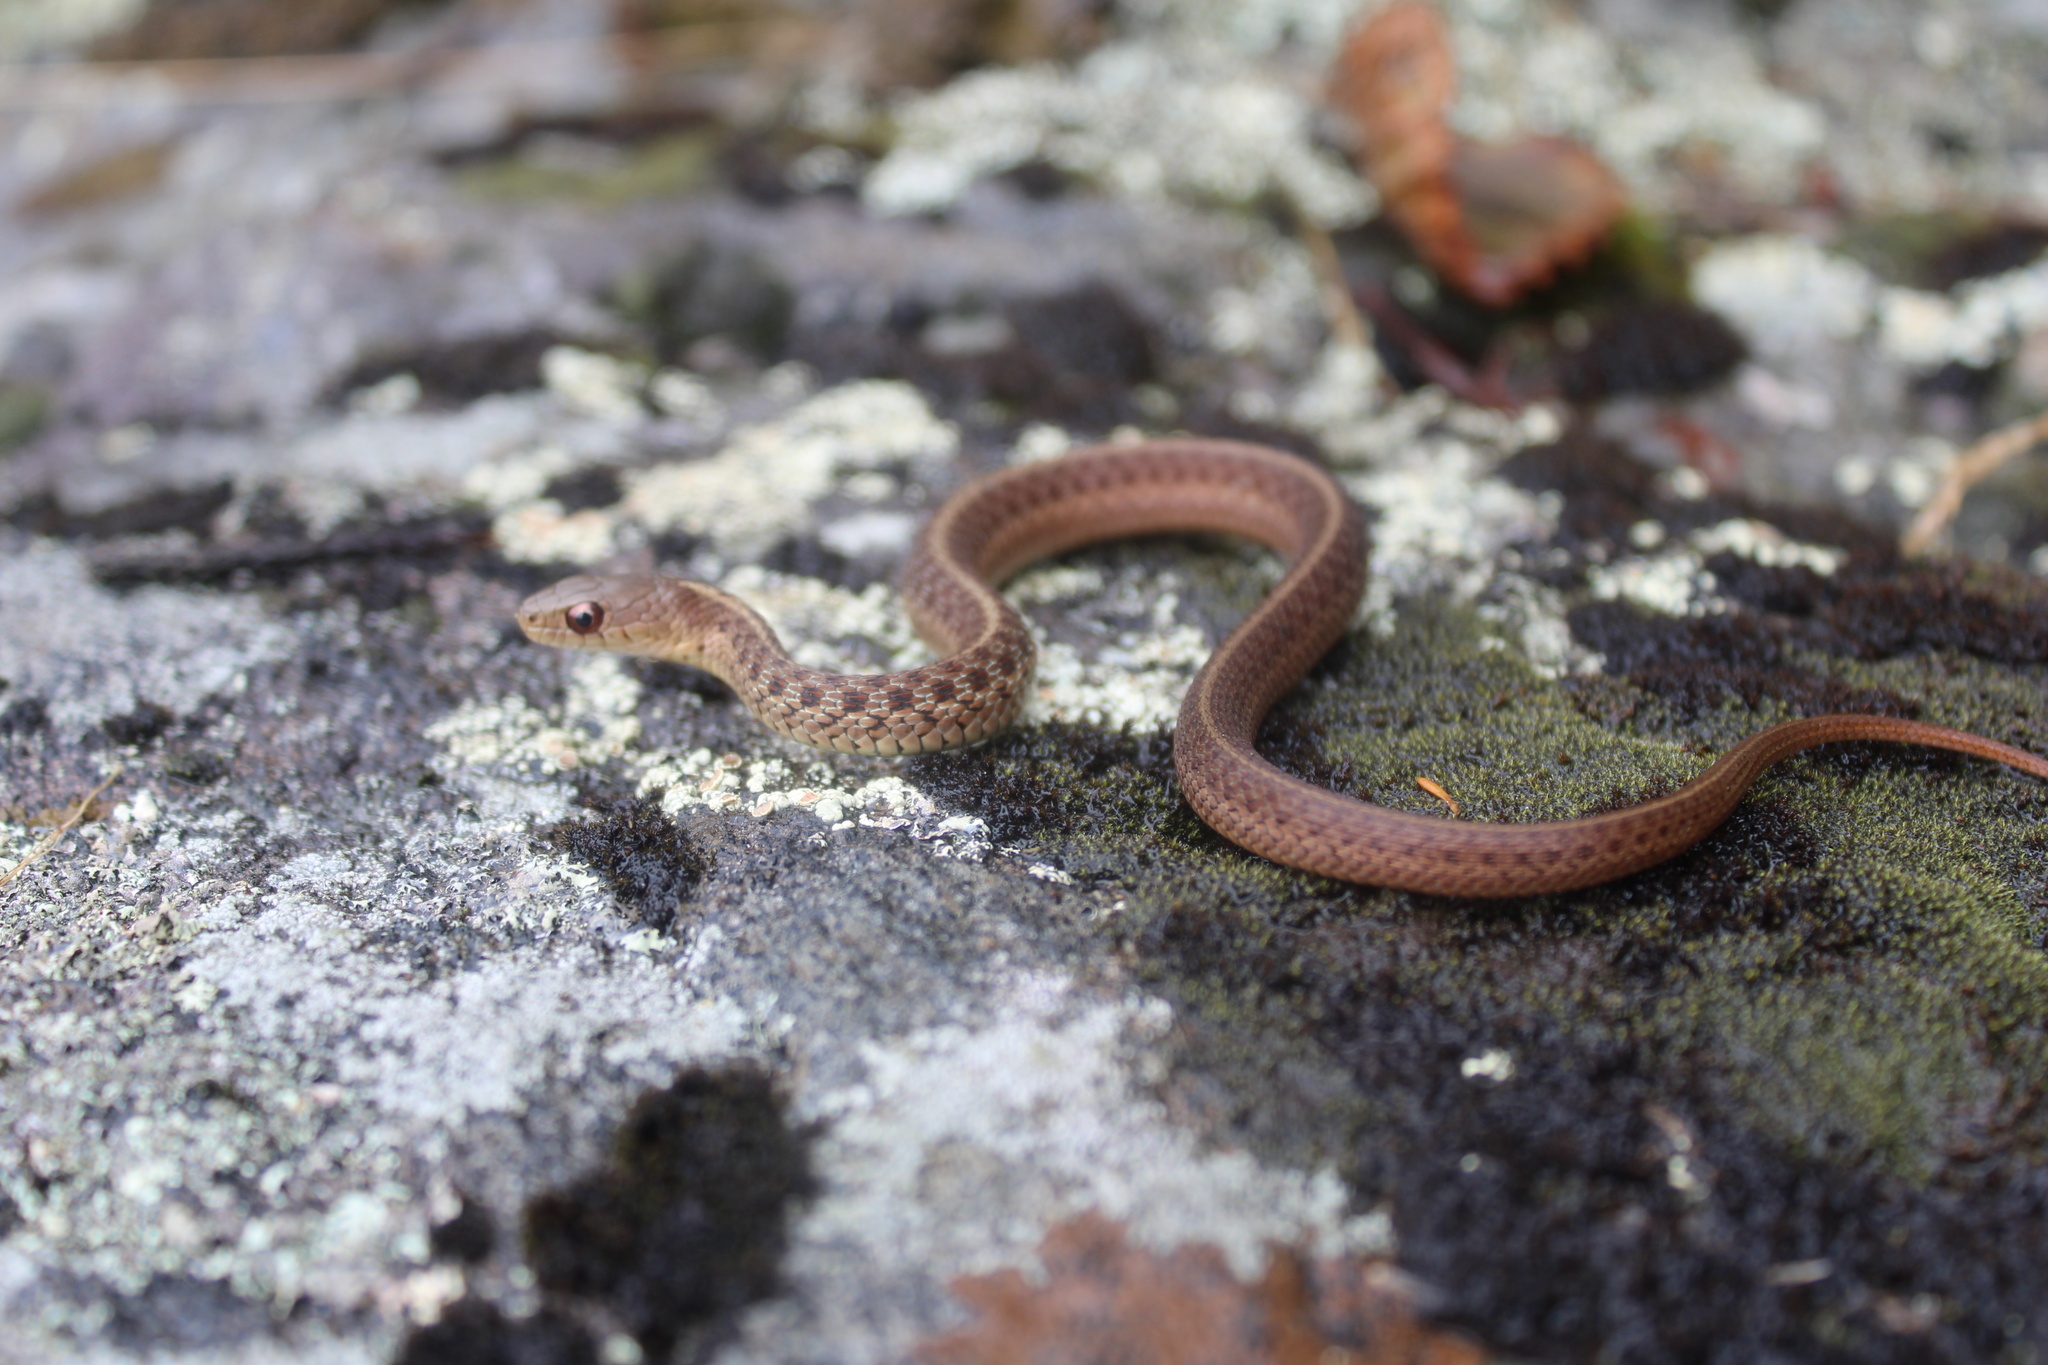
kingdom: Animalia
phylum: Chordata
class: Squamata
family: Colubridae
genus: Thamnophis
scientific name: Thamnophis sirtalis
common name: Common garter snake
